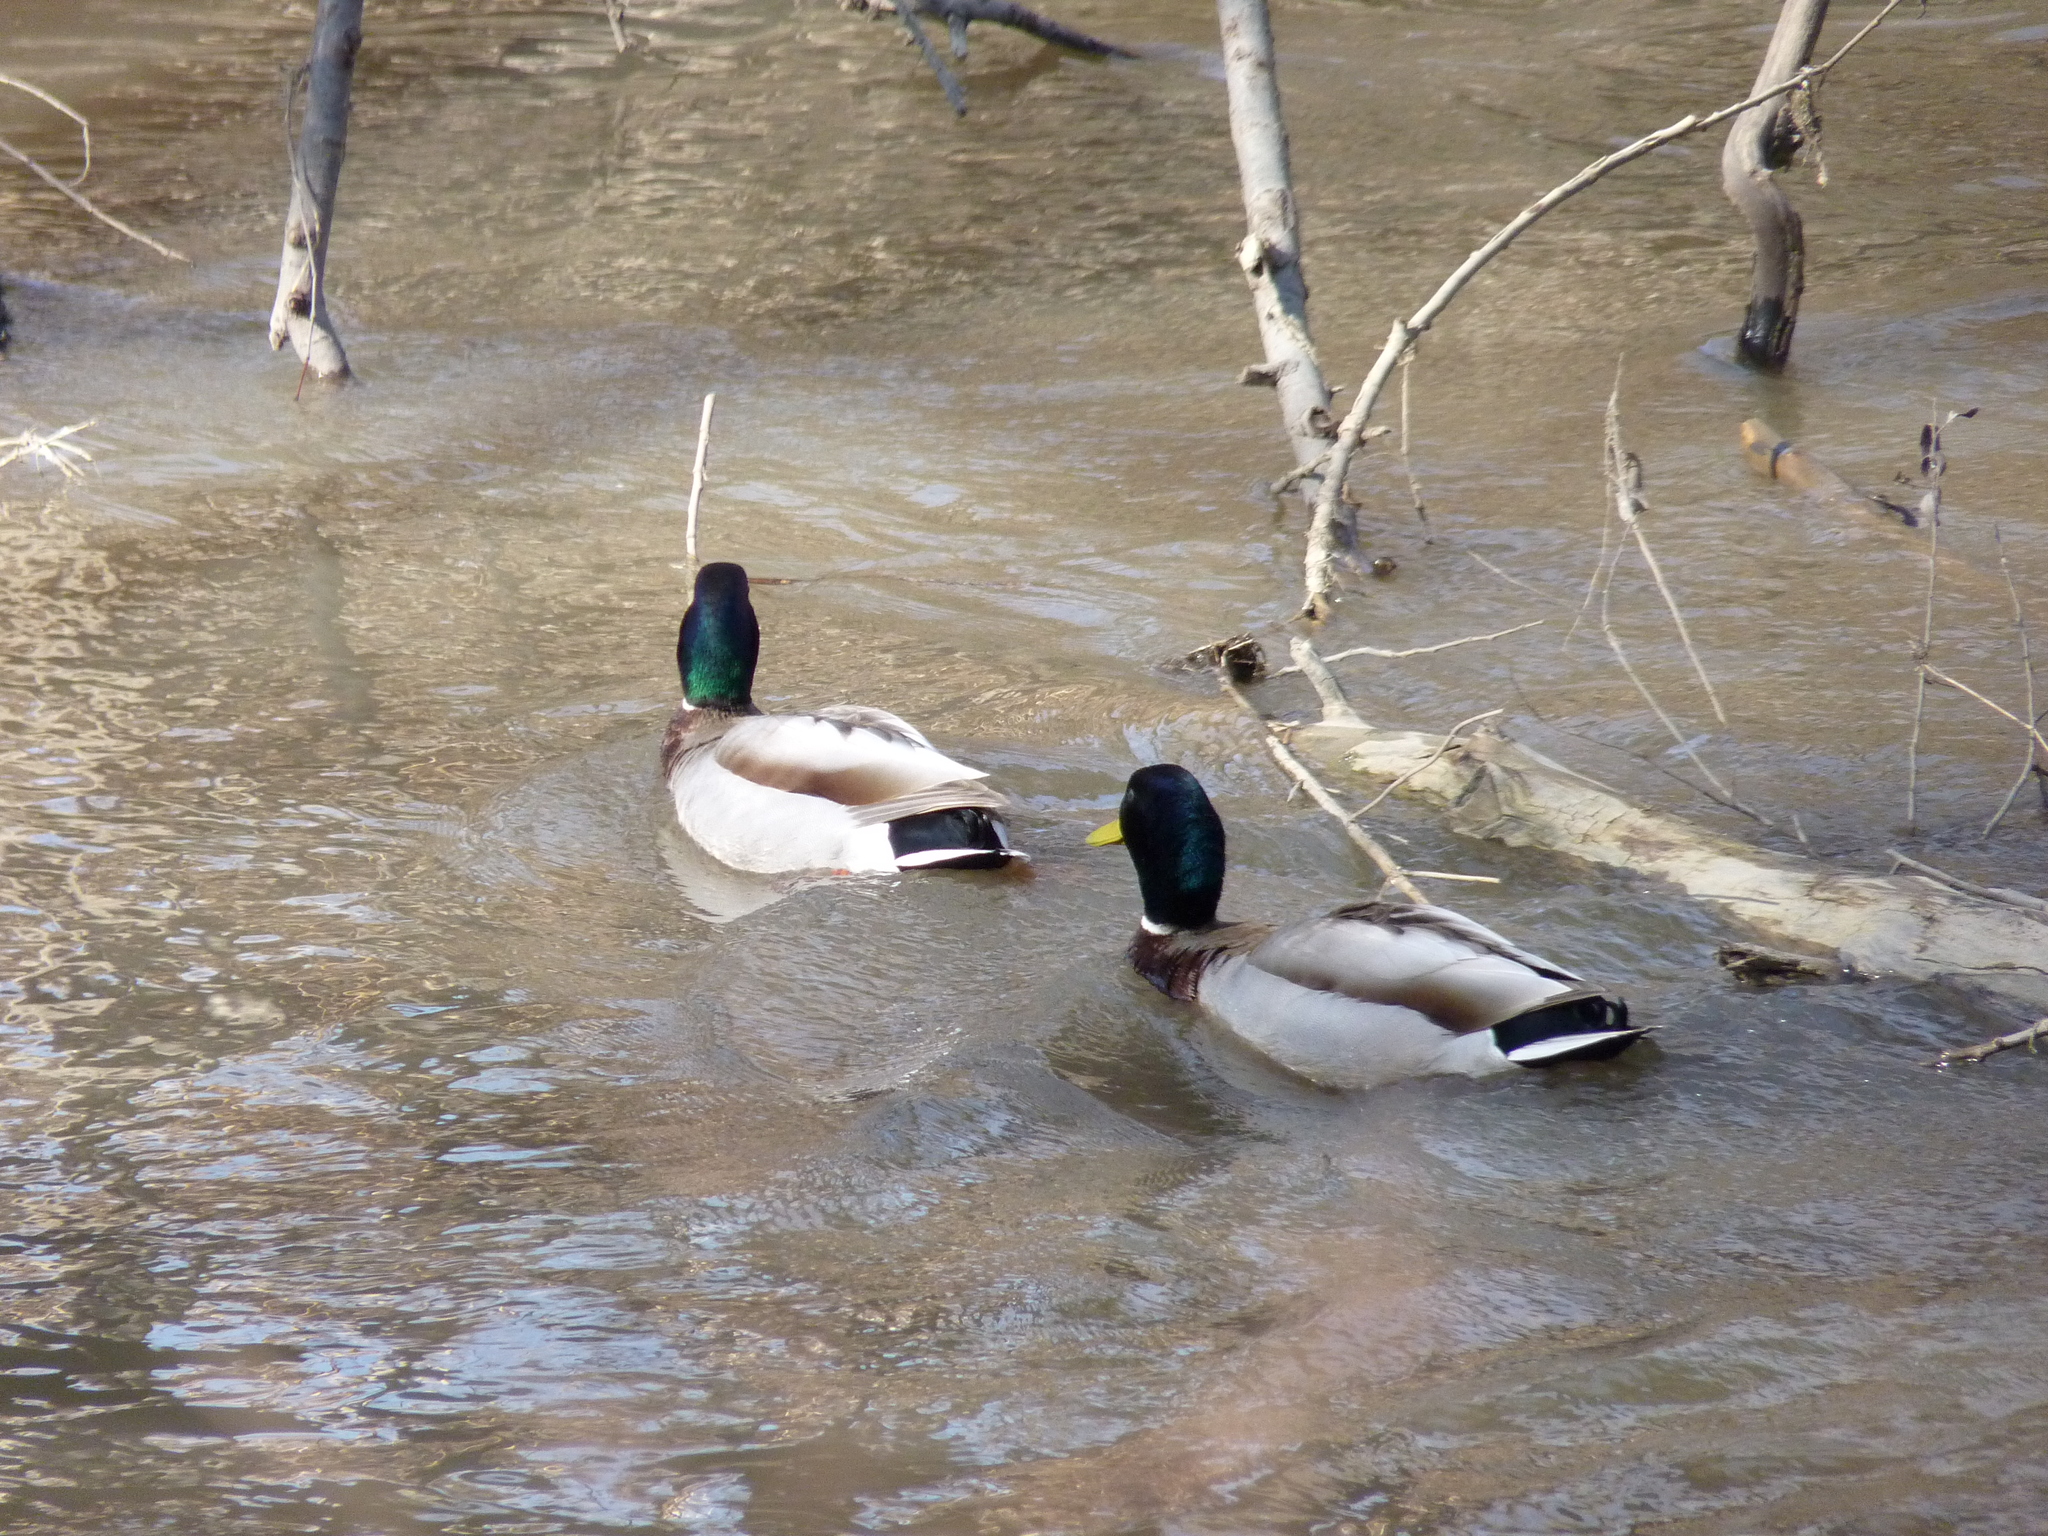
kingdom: Animalia
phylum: Chordata
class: Aves
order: Anseriformes
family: Anatidae
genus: Anas
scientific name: Anas platyrhynchos
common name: Mallard
